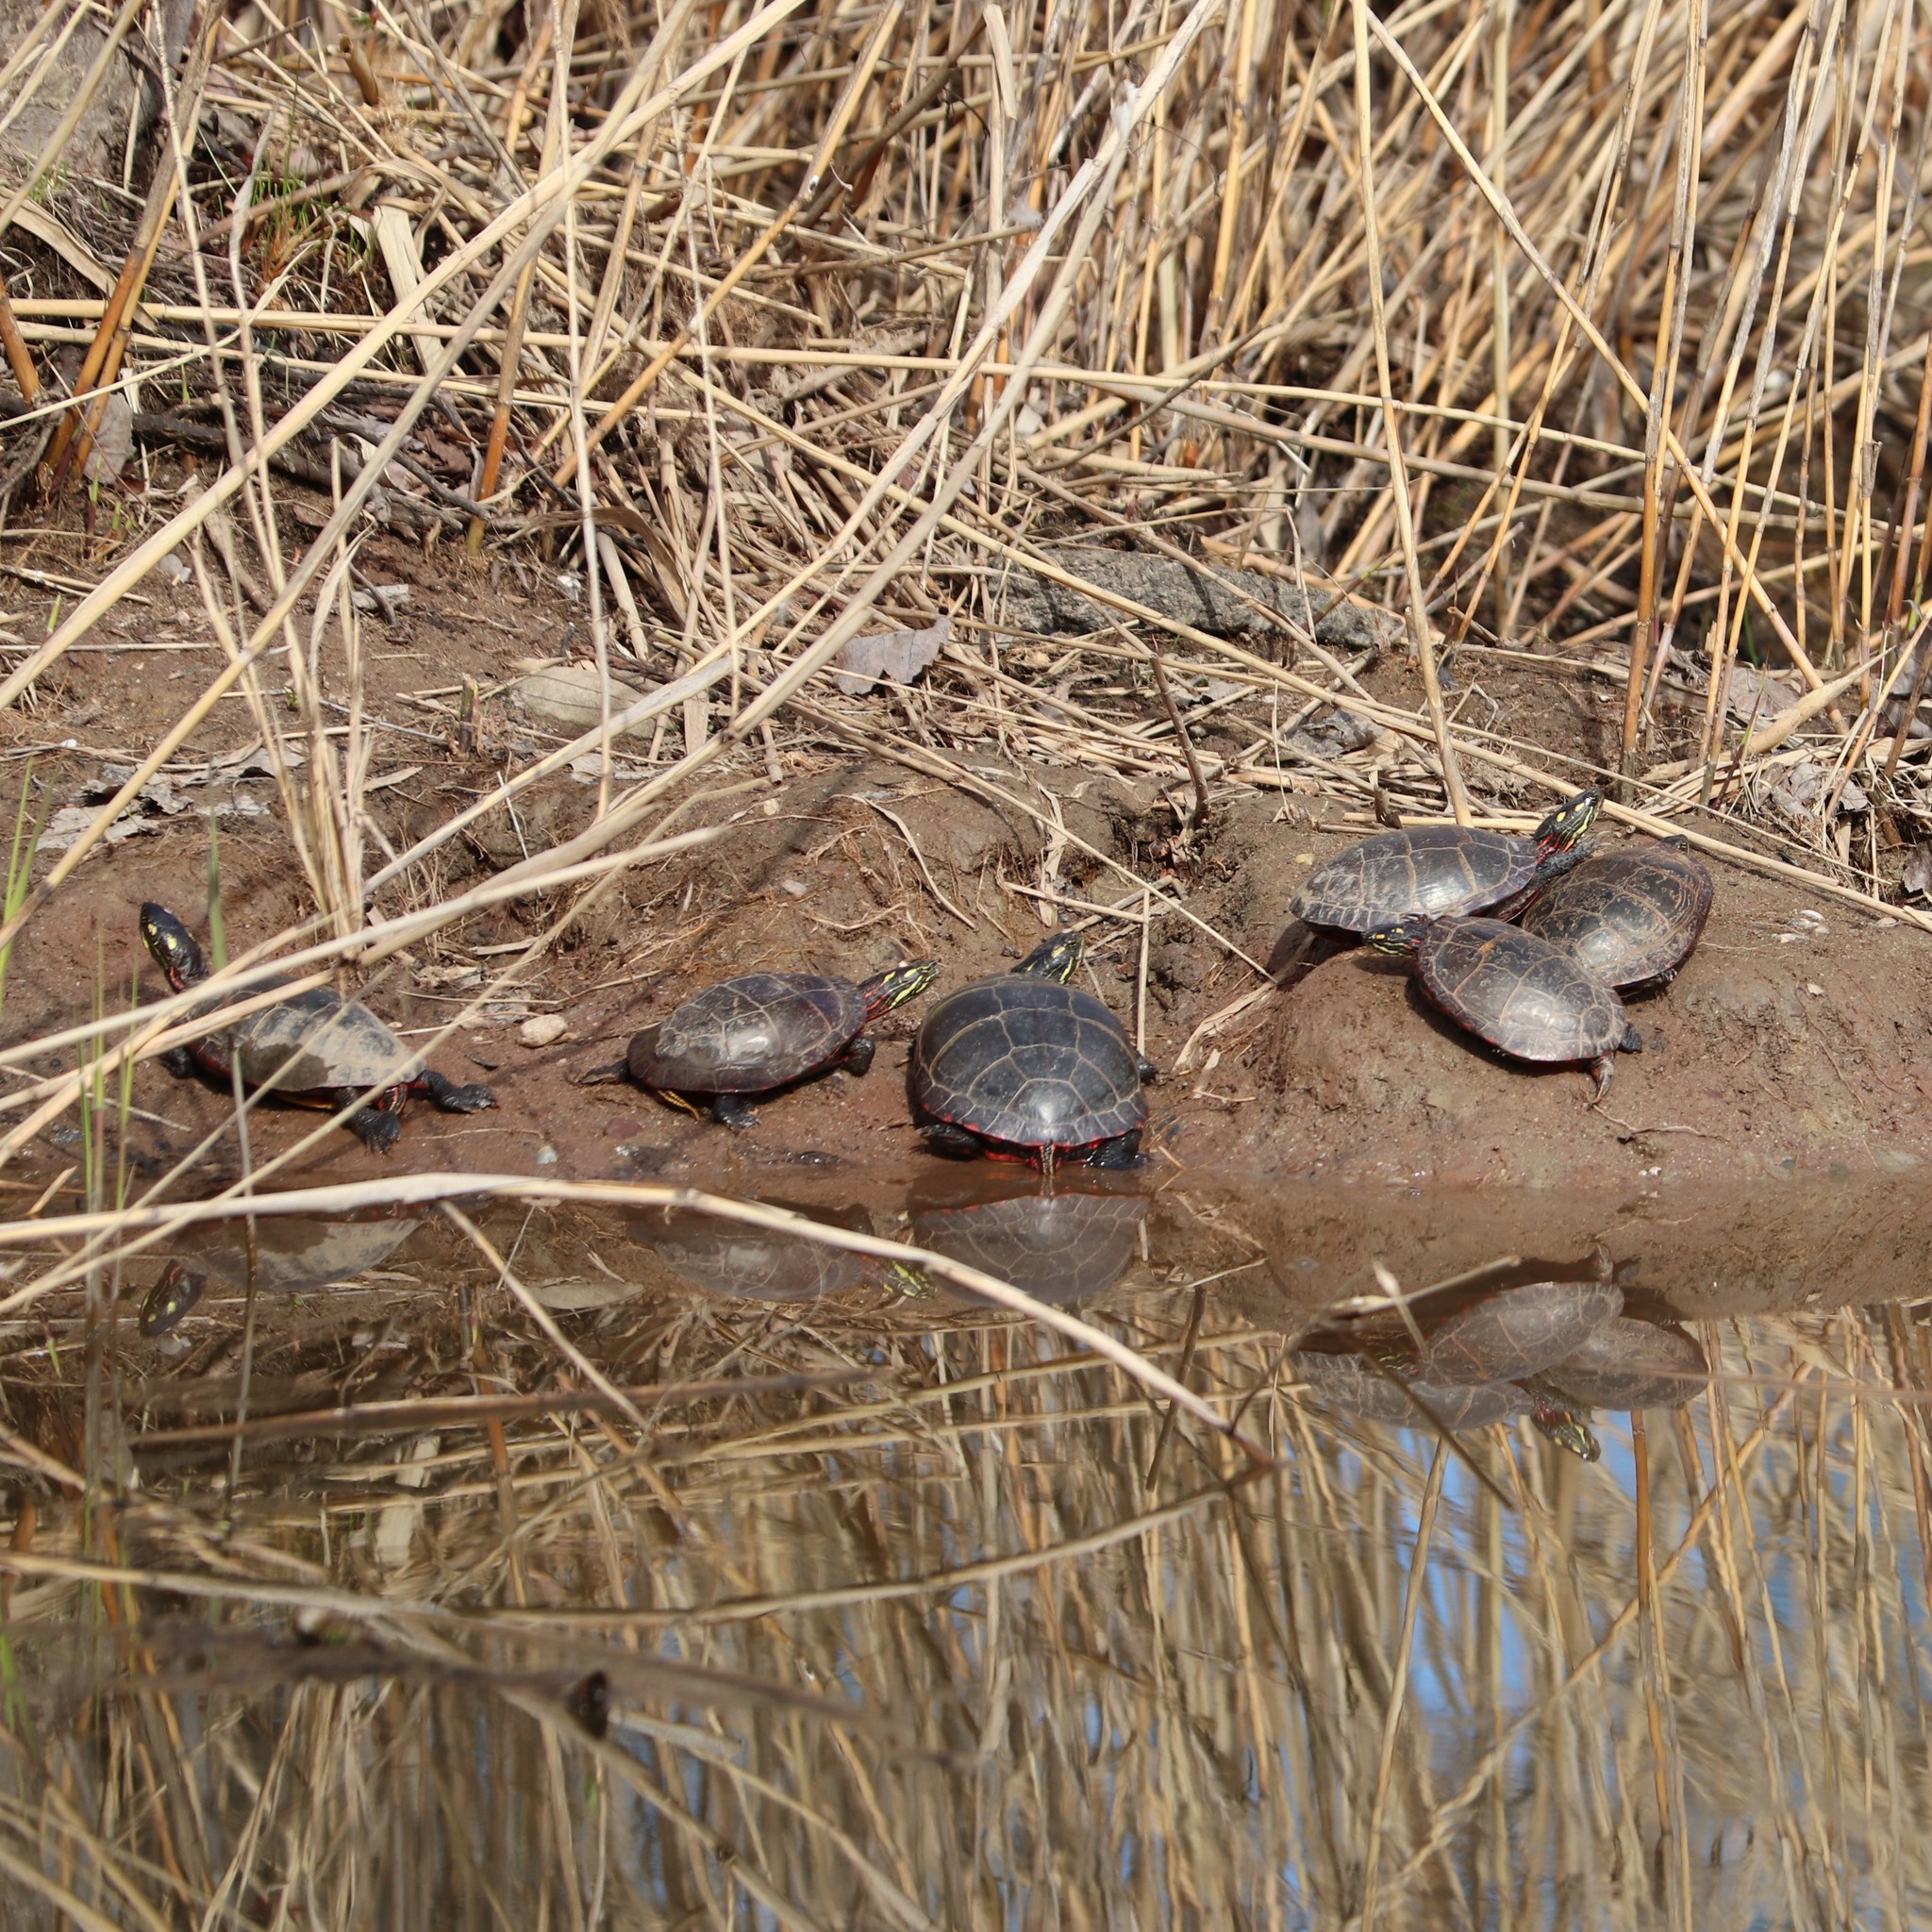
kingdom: Animalia
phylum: Chordata
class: Testudines
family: Emydidae
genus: Chrysemys
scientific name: Chrysemys picta
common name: Painted turtle
